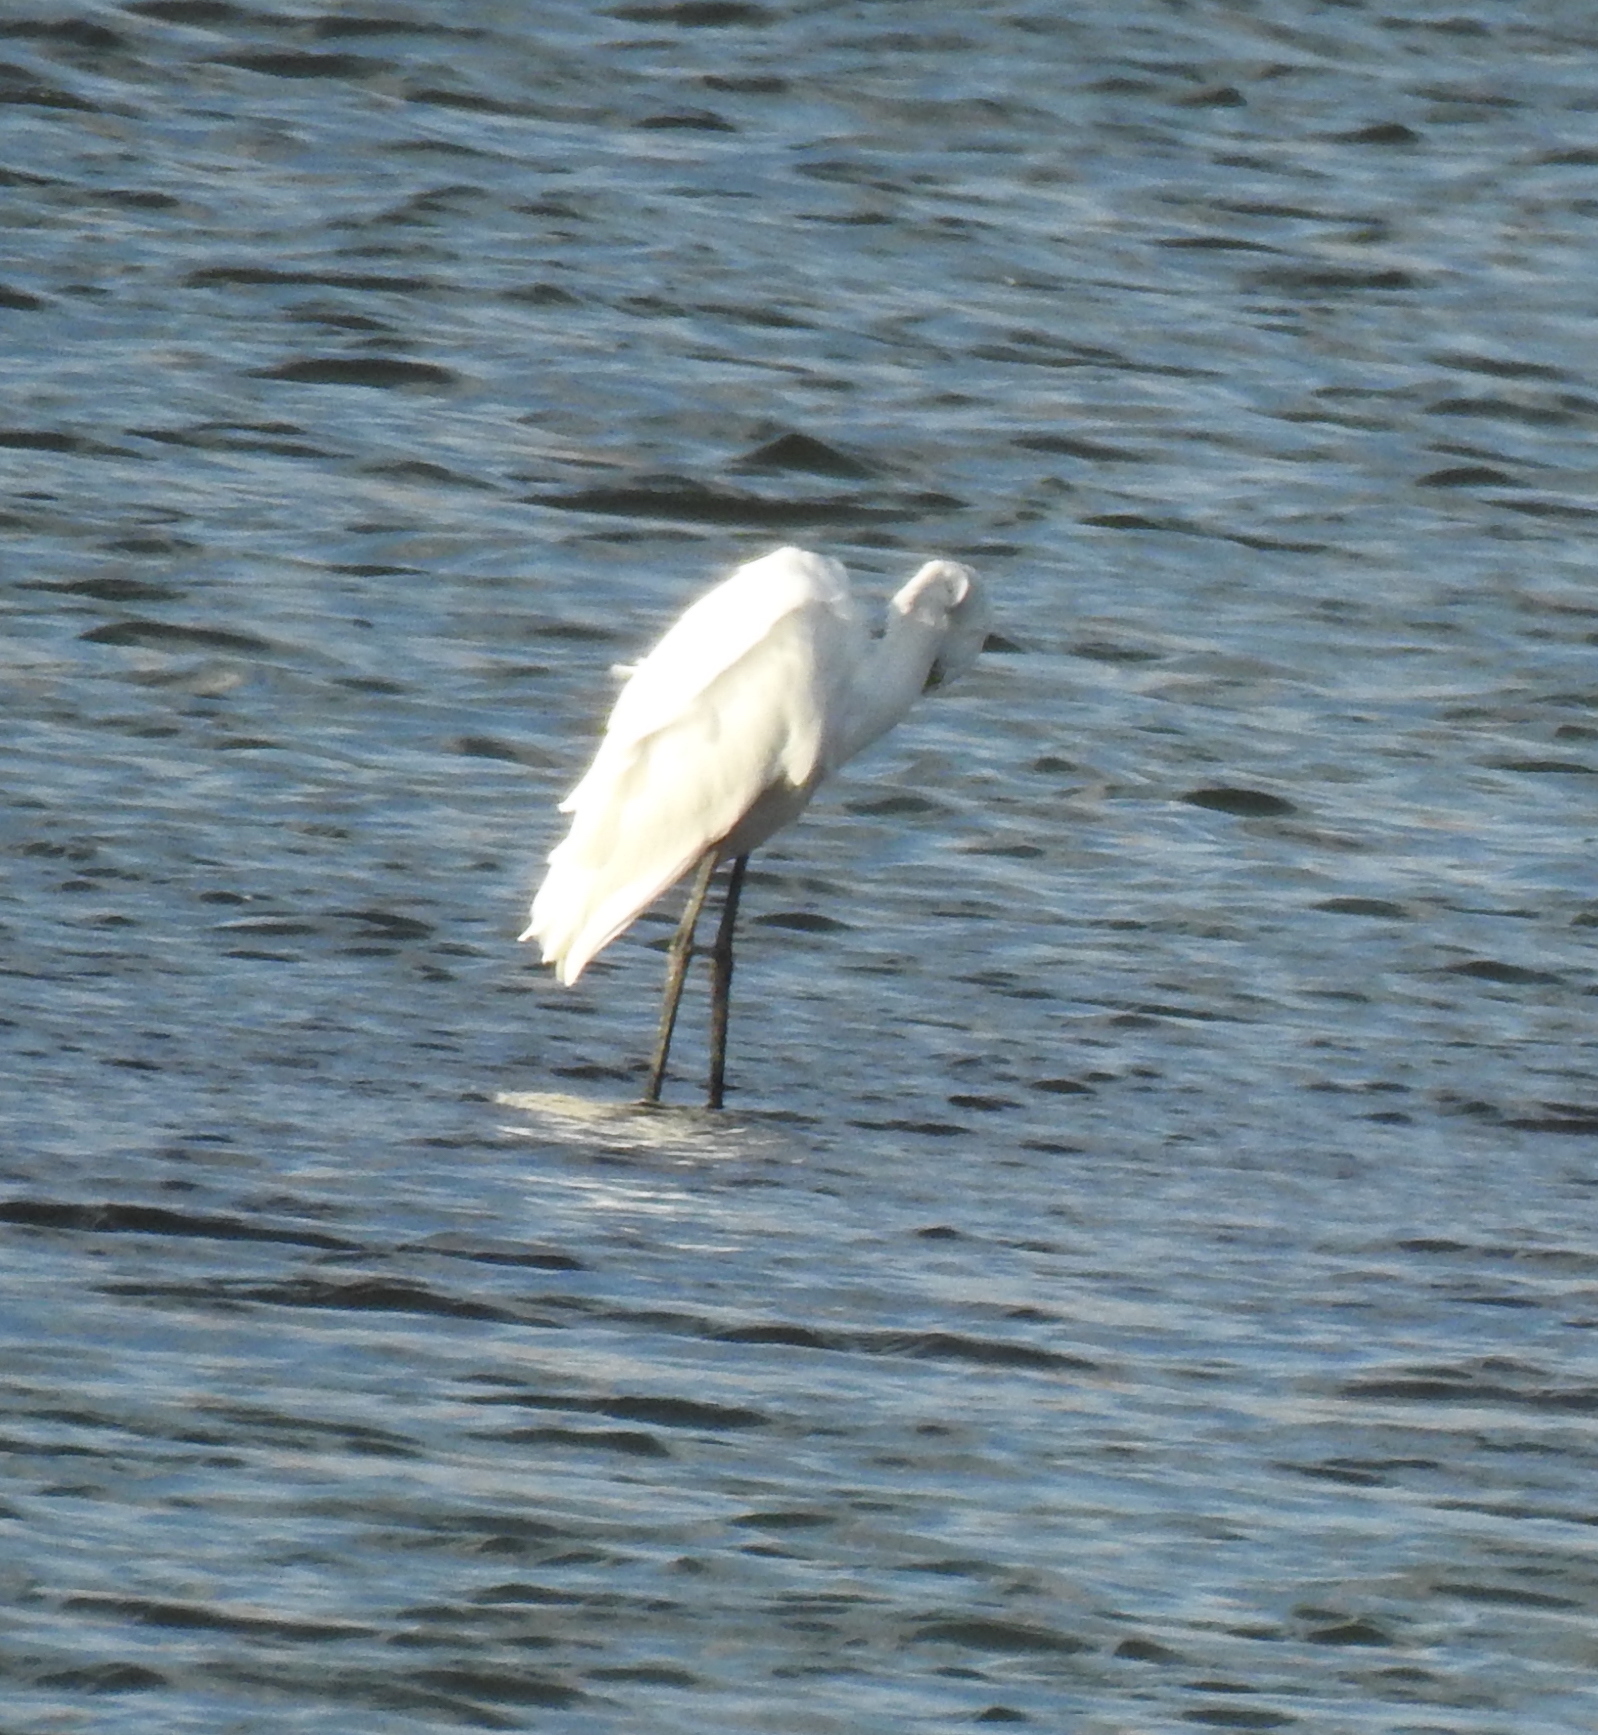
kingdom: Animalia
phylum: Chordata
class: Aves
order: Pelecaniformes
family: Ardeidae
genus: Ardea
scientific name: Ardea alba
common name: Great egret
